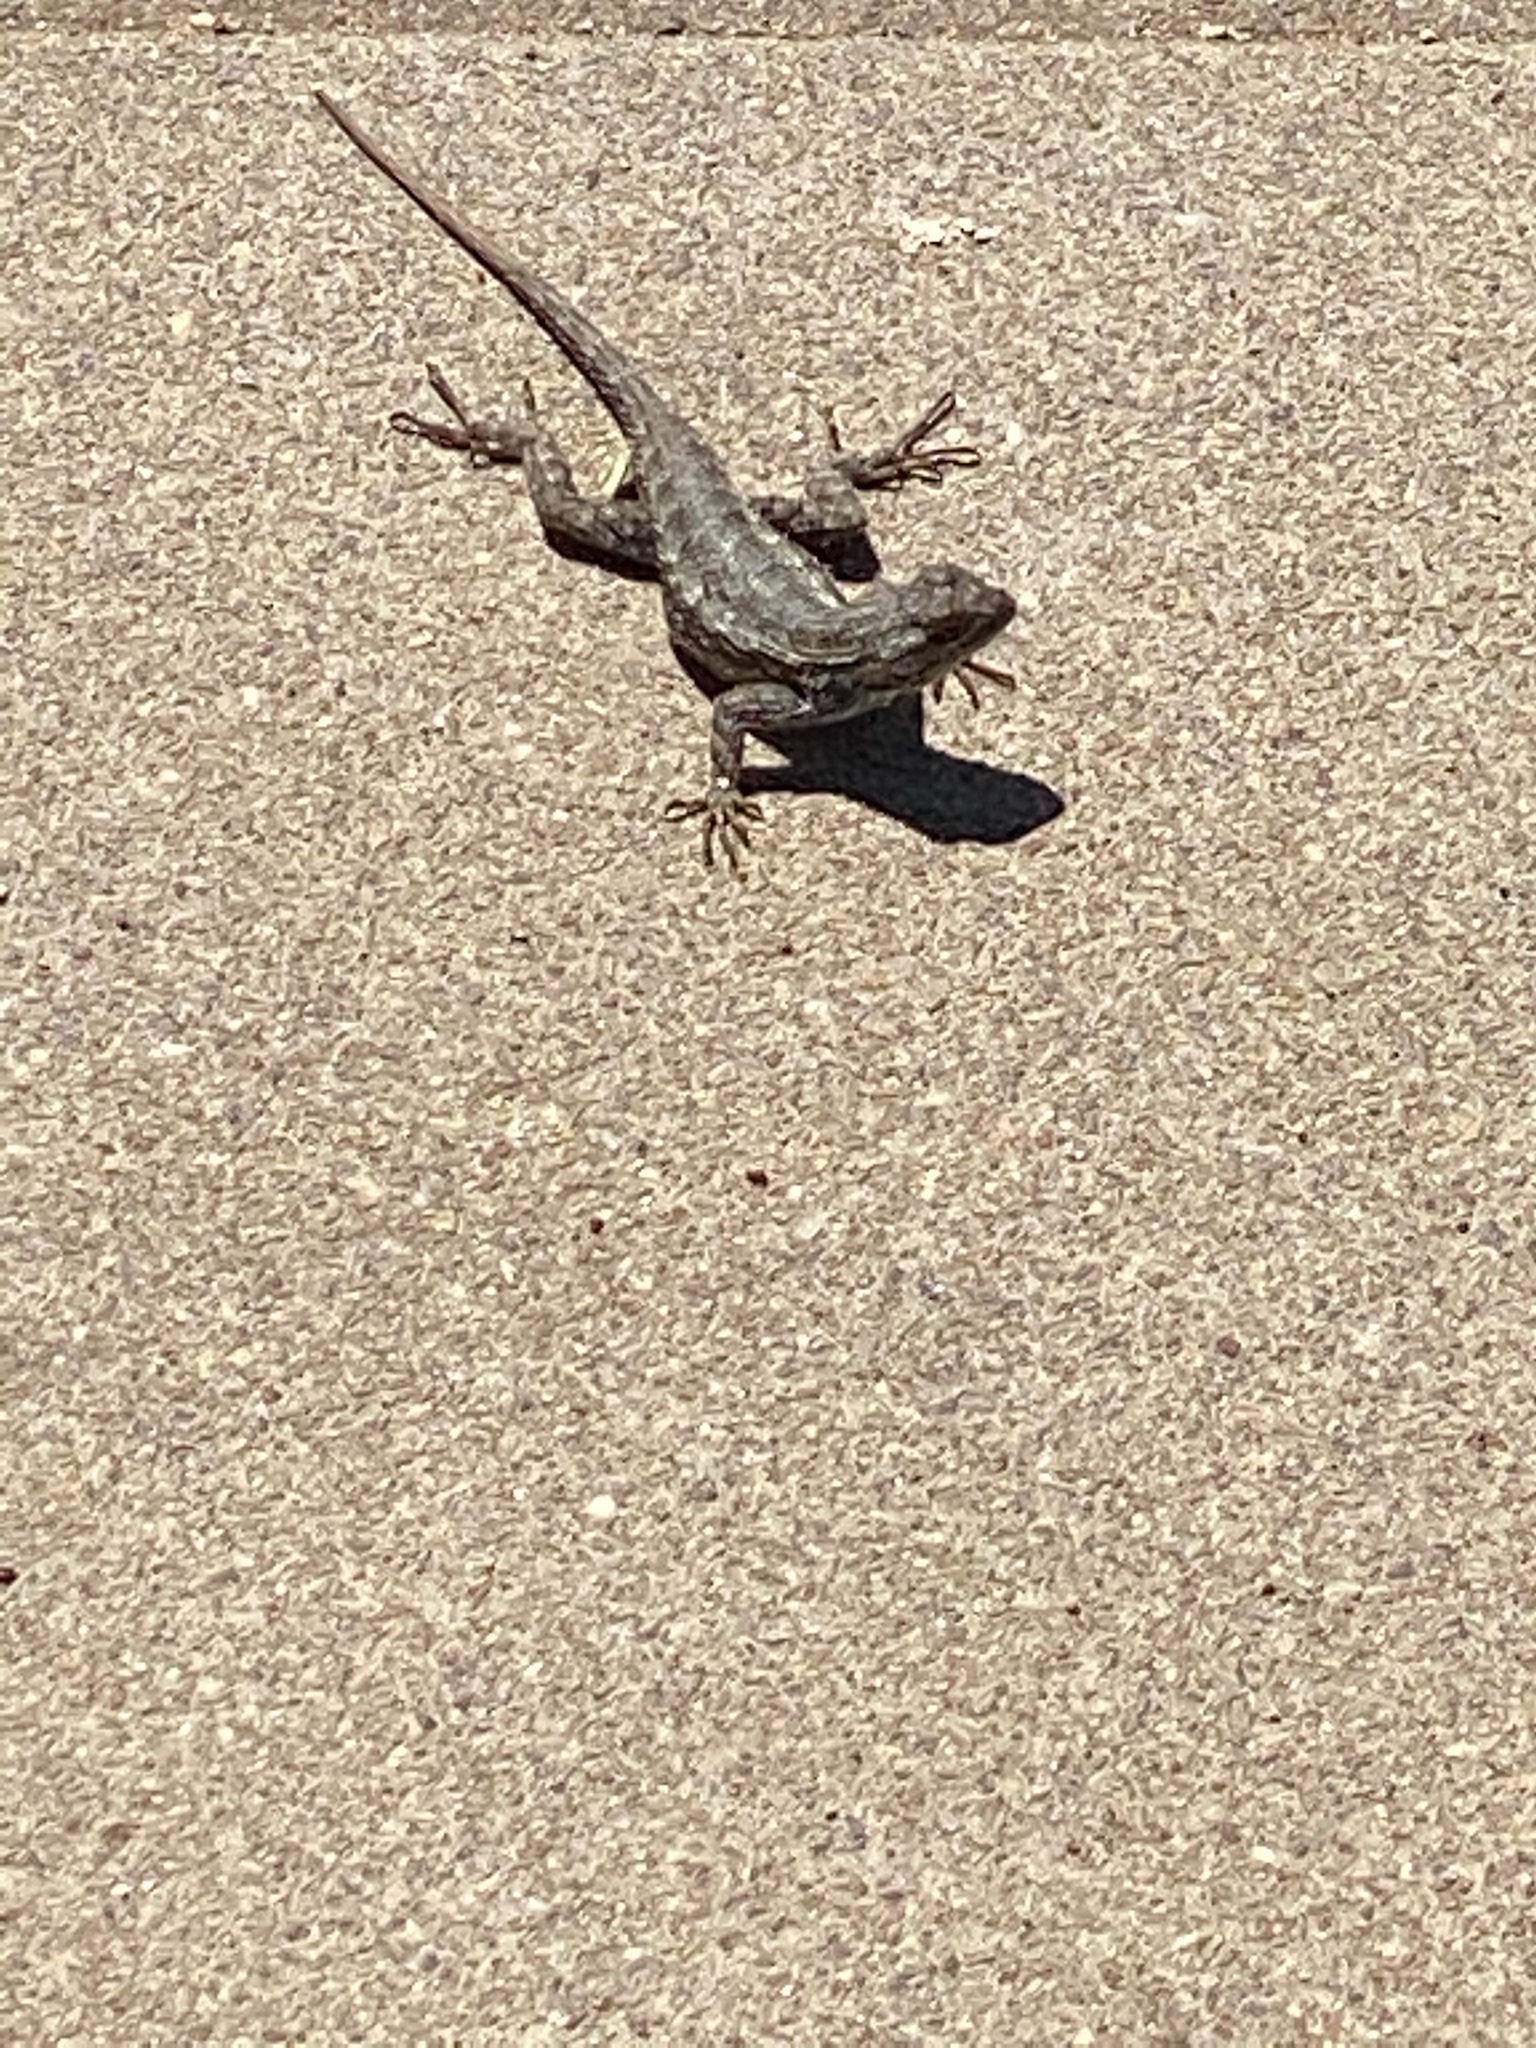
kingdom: Animalia
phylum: Chordata
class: Squamata
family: Phrynosomatidae
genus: Sceloporus
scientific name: Sceloporus occidentalis
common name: Western fence lizard
